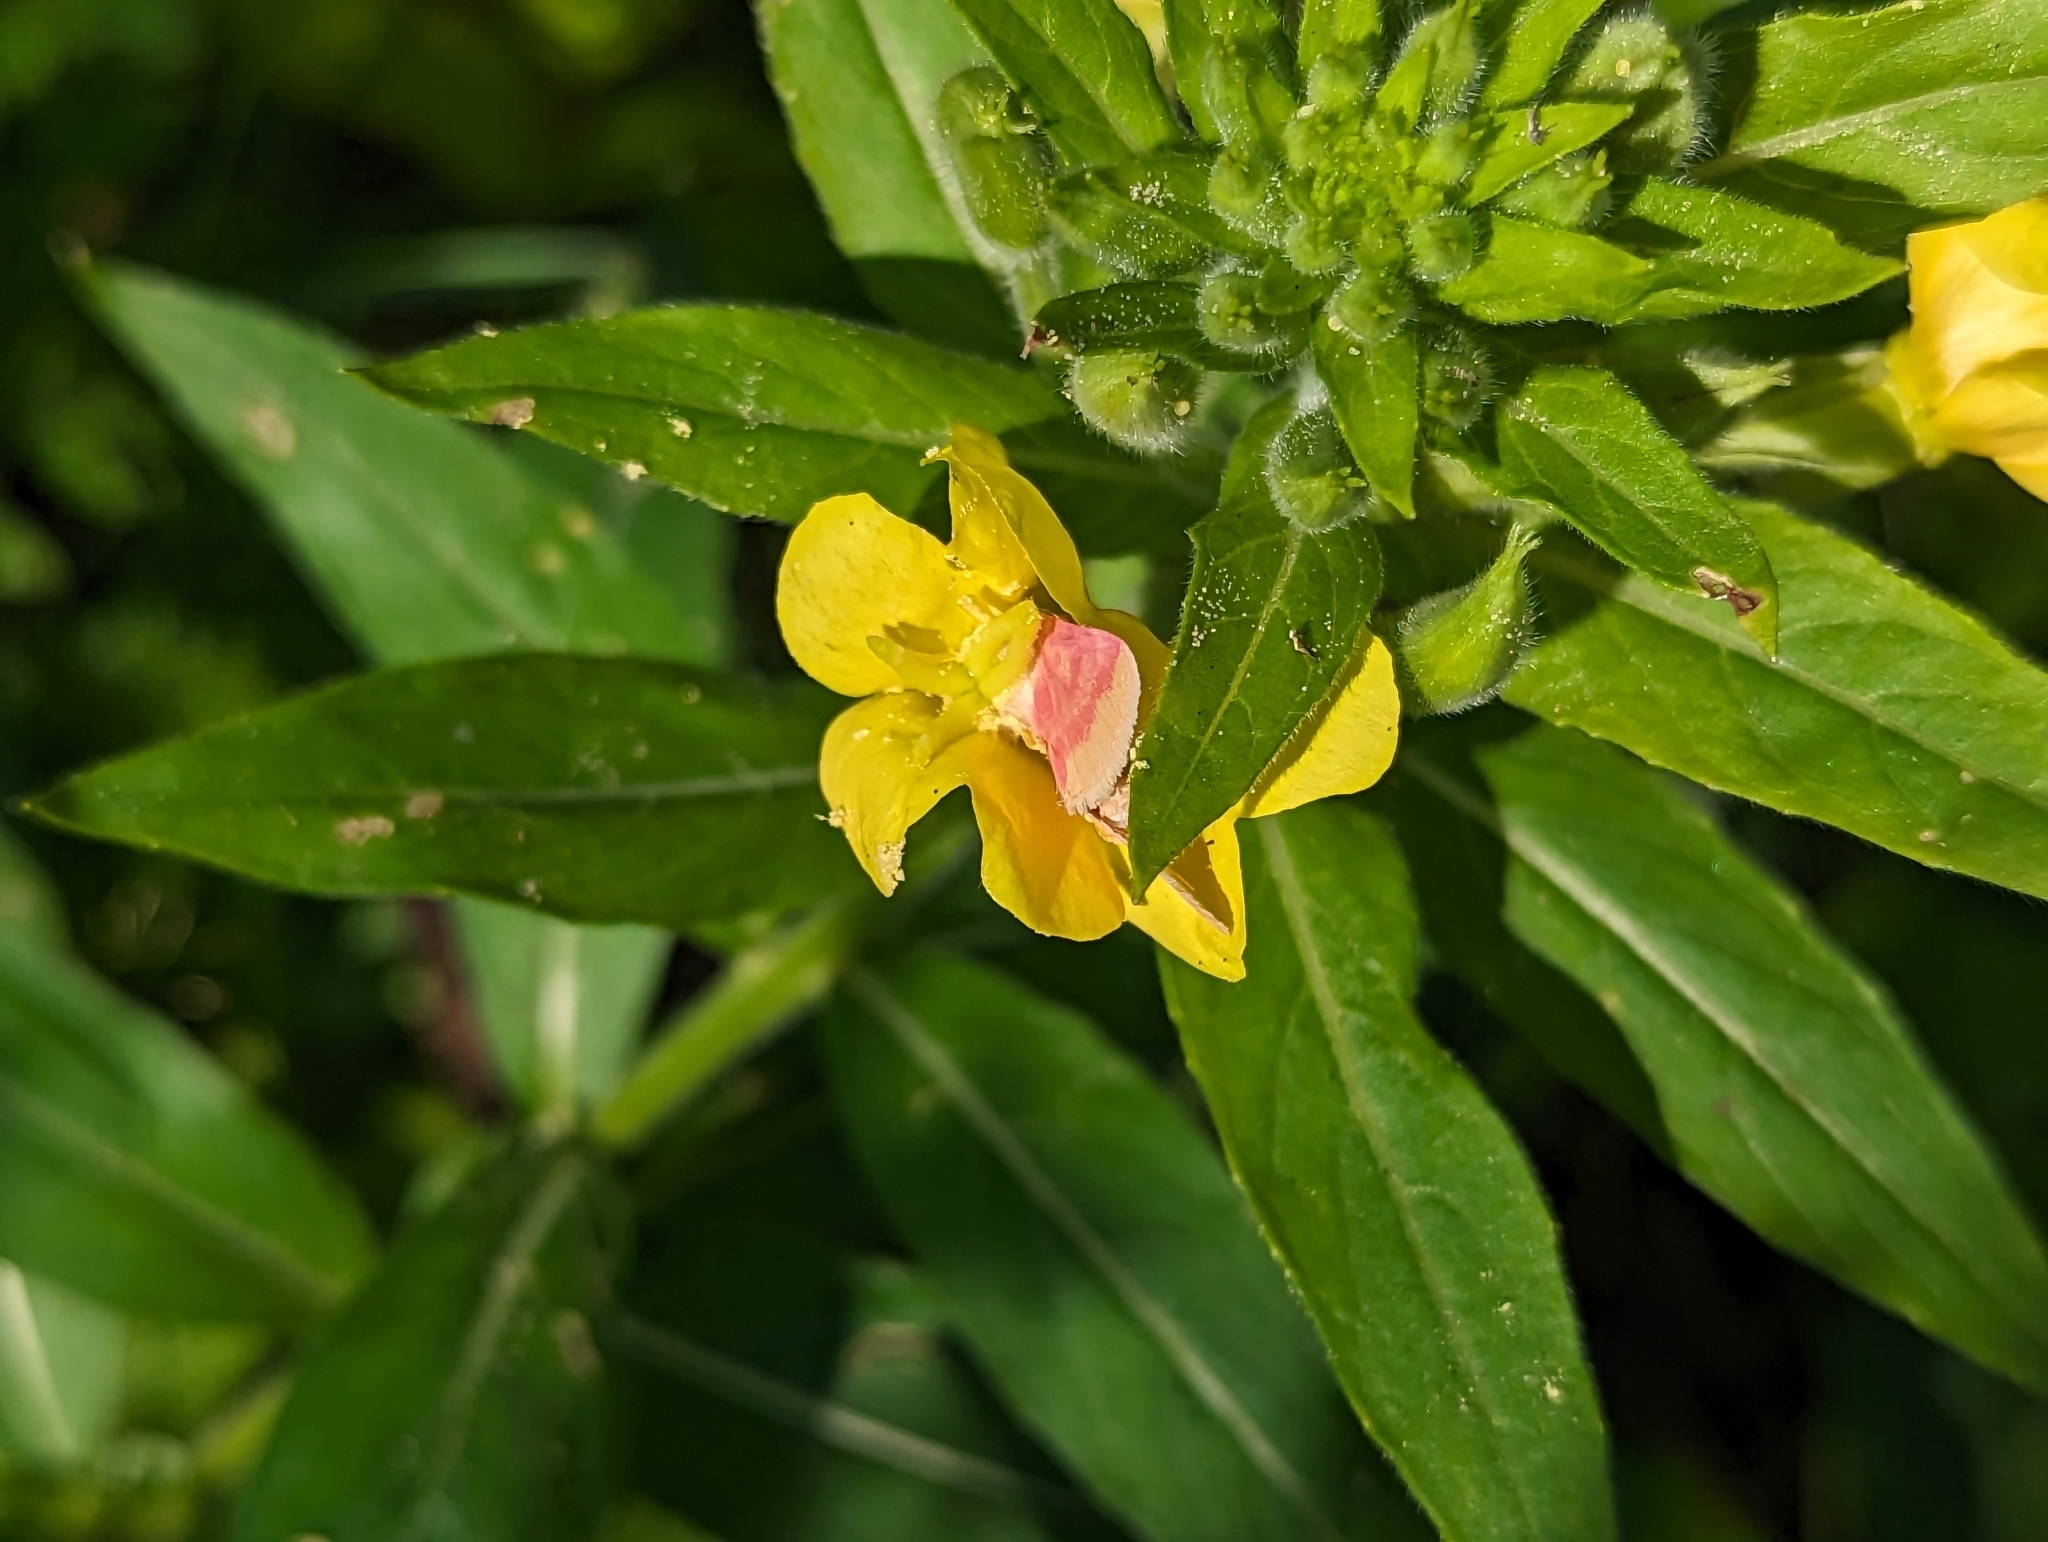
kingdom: Animalia
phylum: Arthropoda
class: Insecta
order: Lepidoptera
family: Noctuidae
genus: Schinia
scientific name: Schinia florida
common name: Primrose moth
